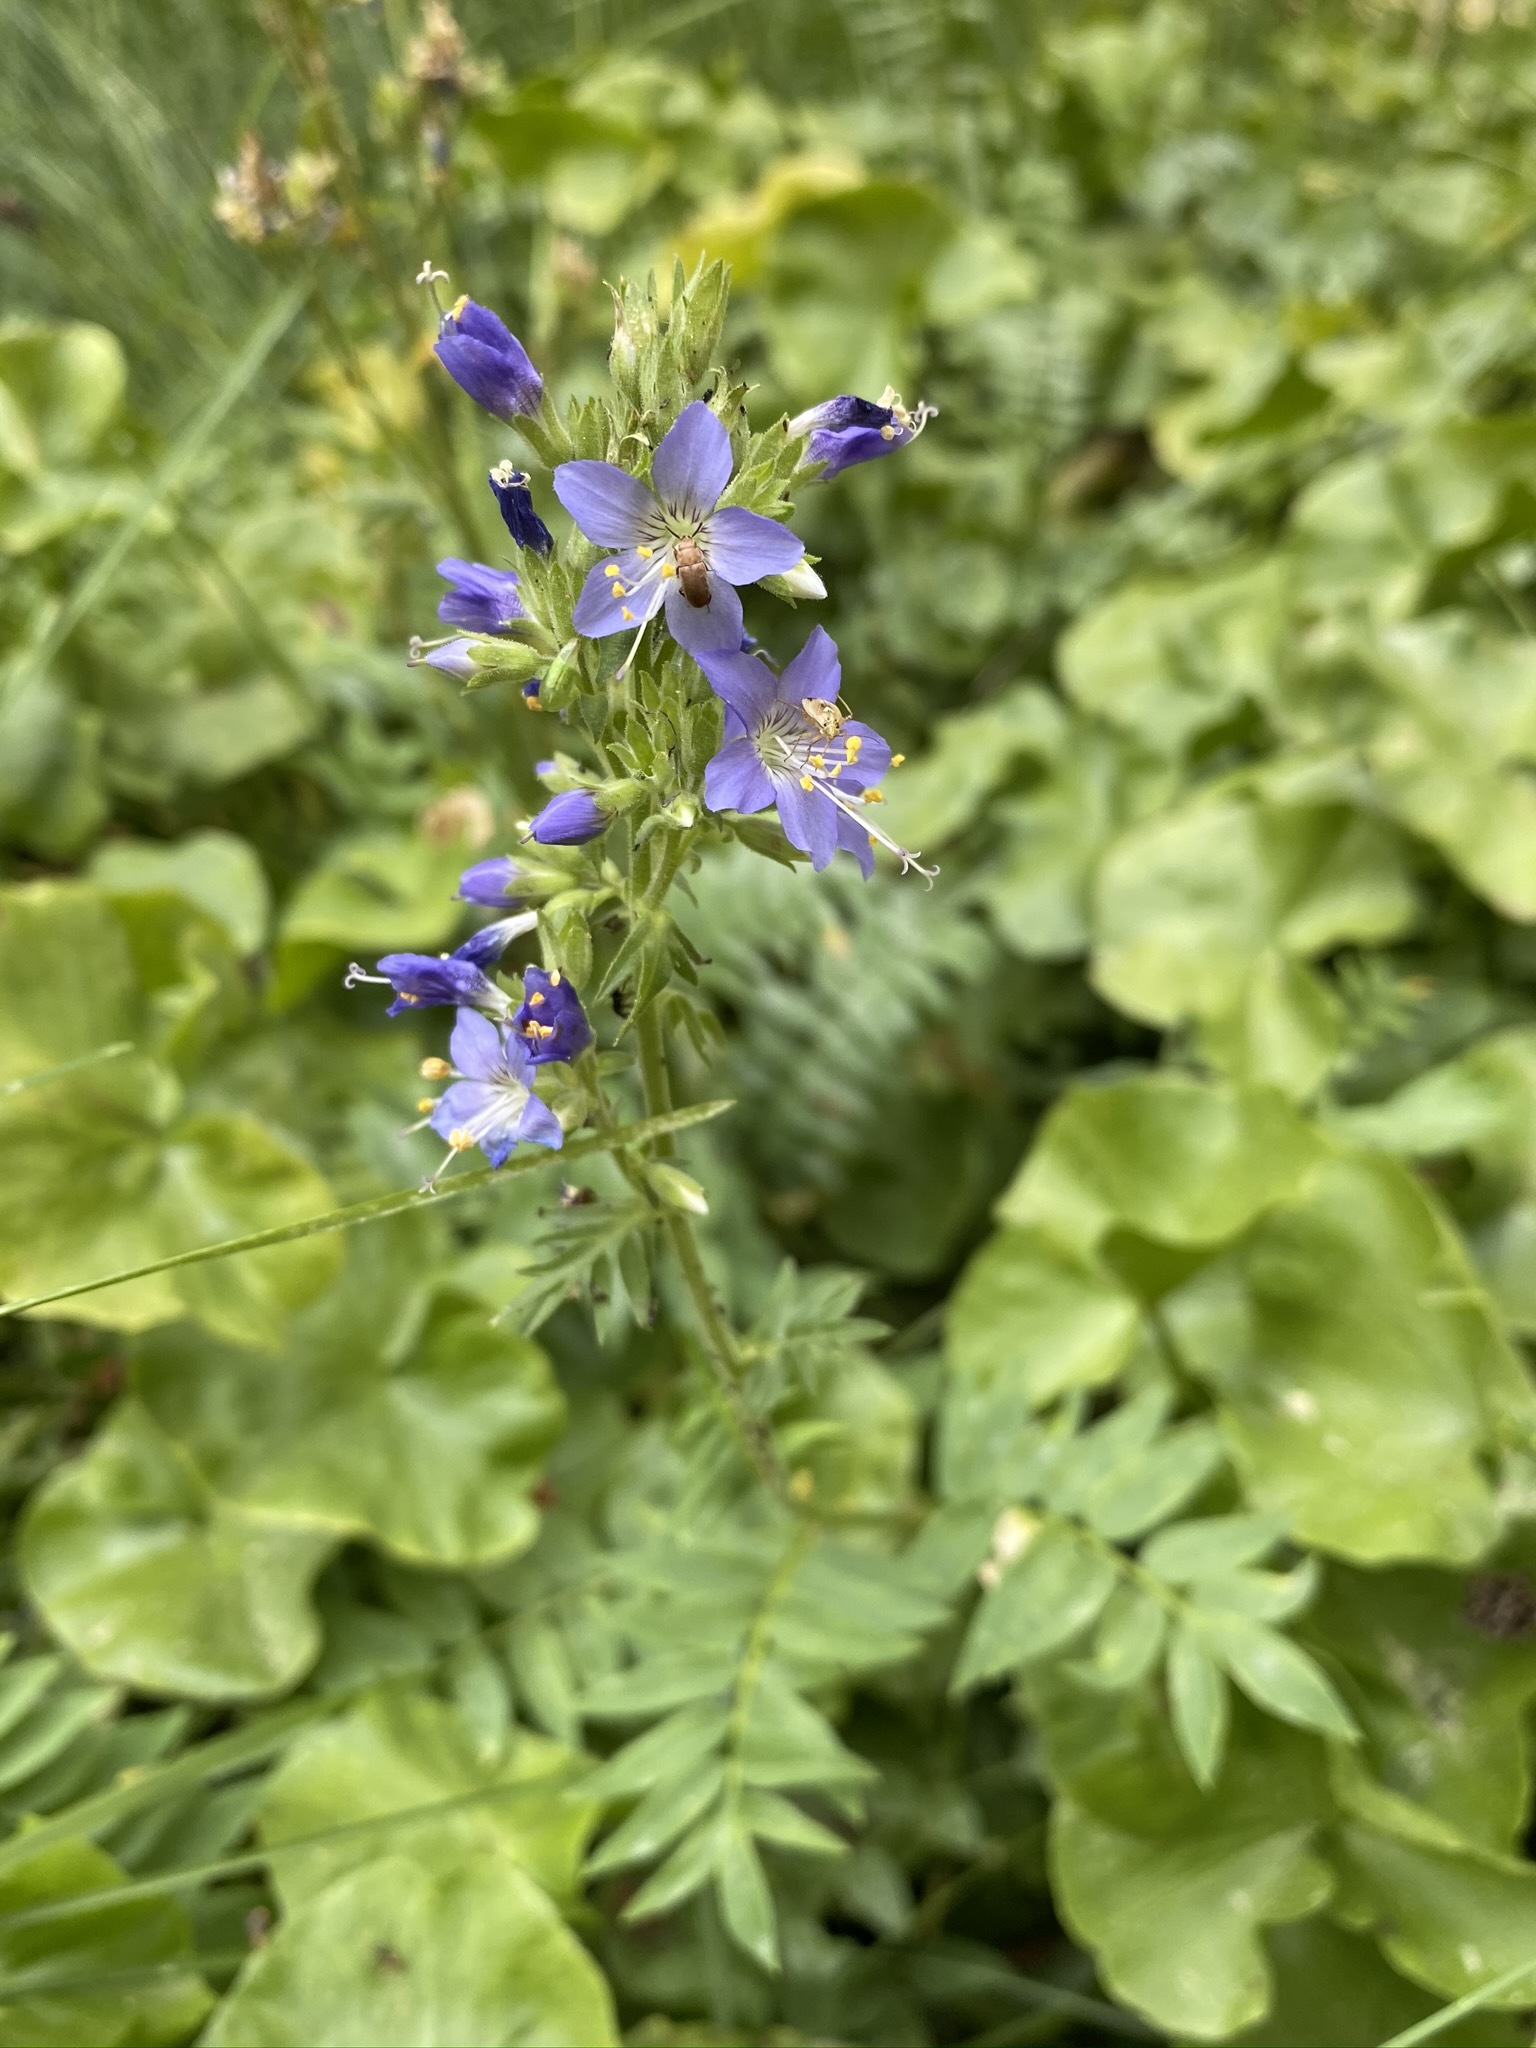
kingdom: Plantae
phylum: Tracheophyta
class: Magnoliopsida
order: Ericales
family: Polemoniaceae
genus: Polemonium
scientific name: Polemonium occidentale
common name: Western jacob's-ladder
